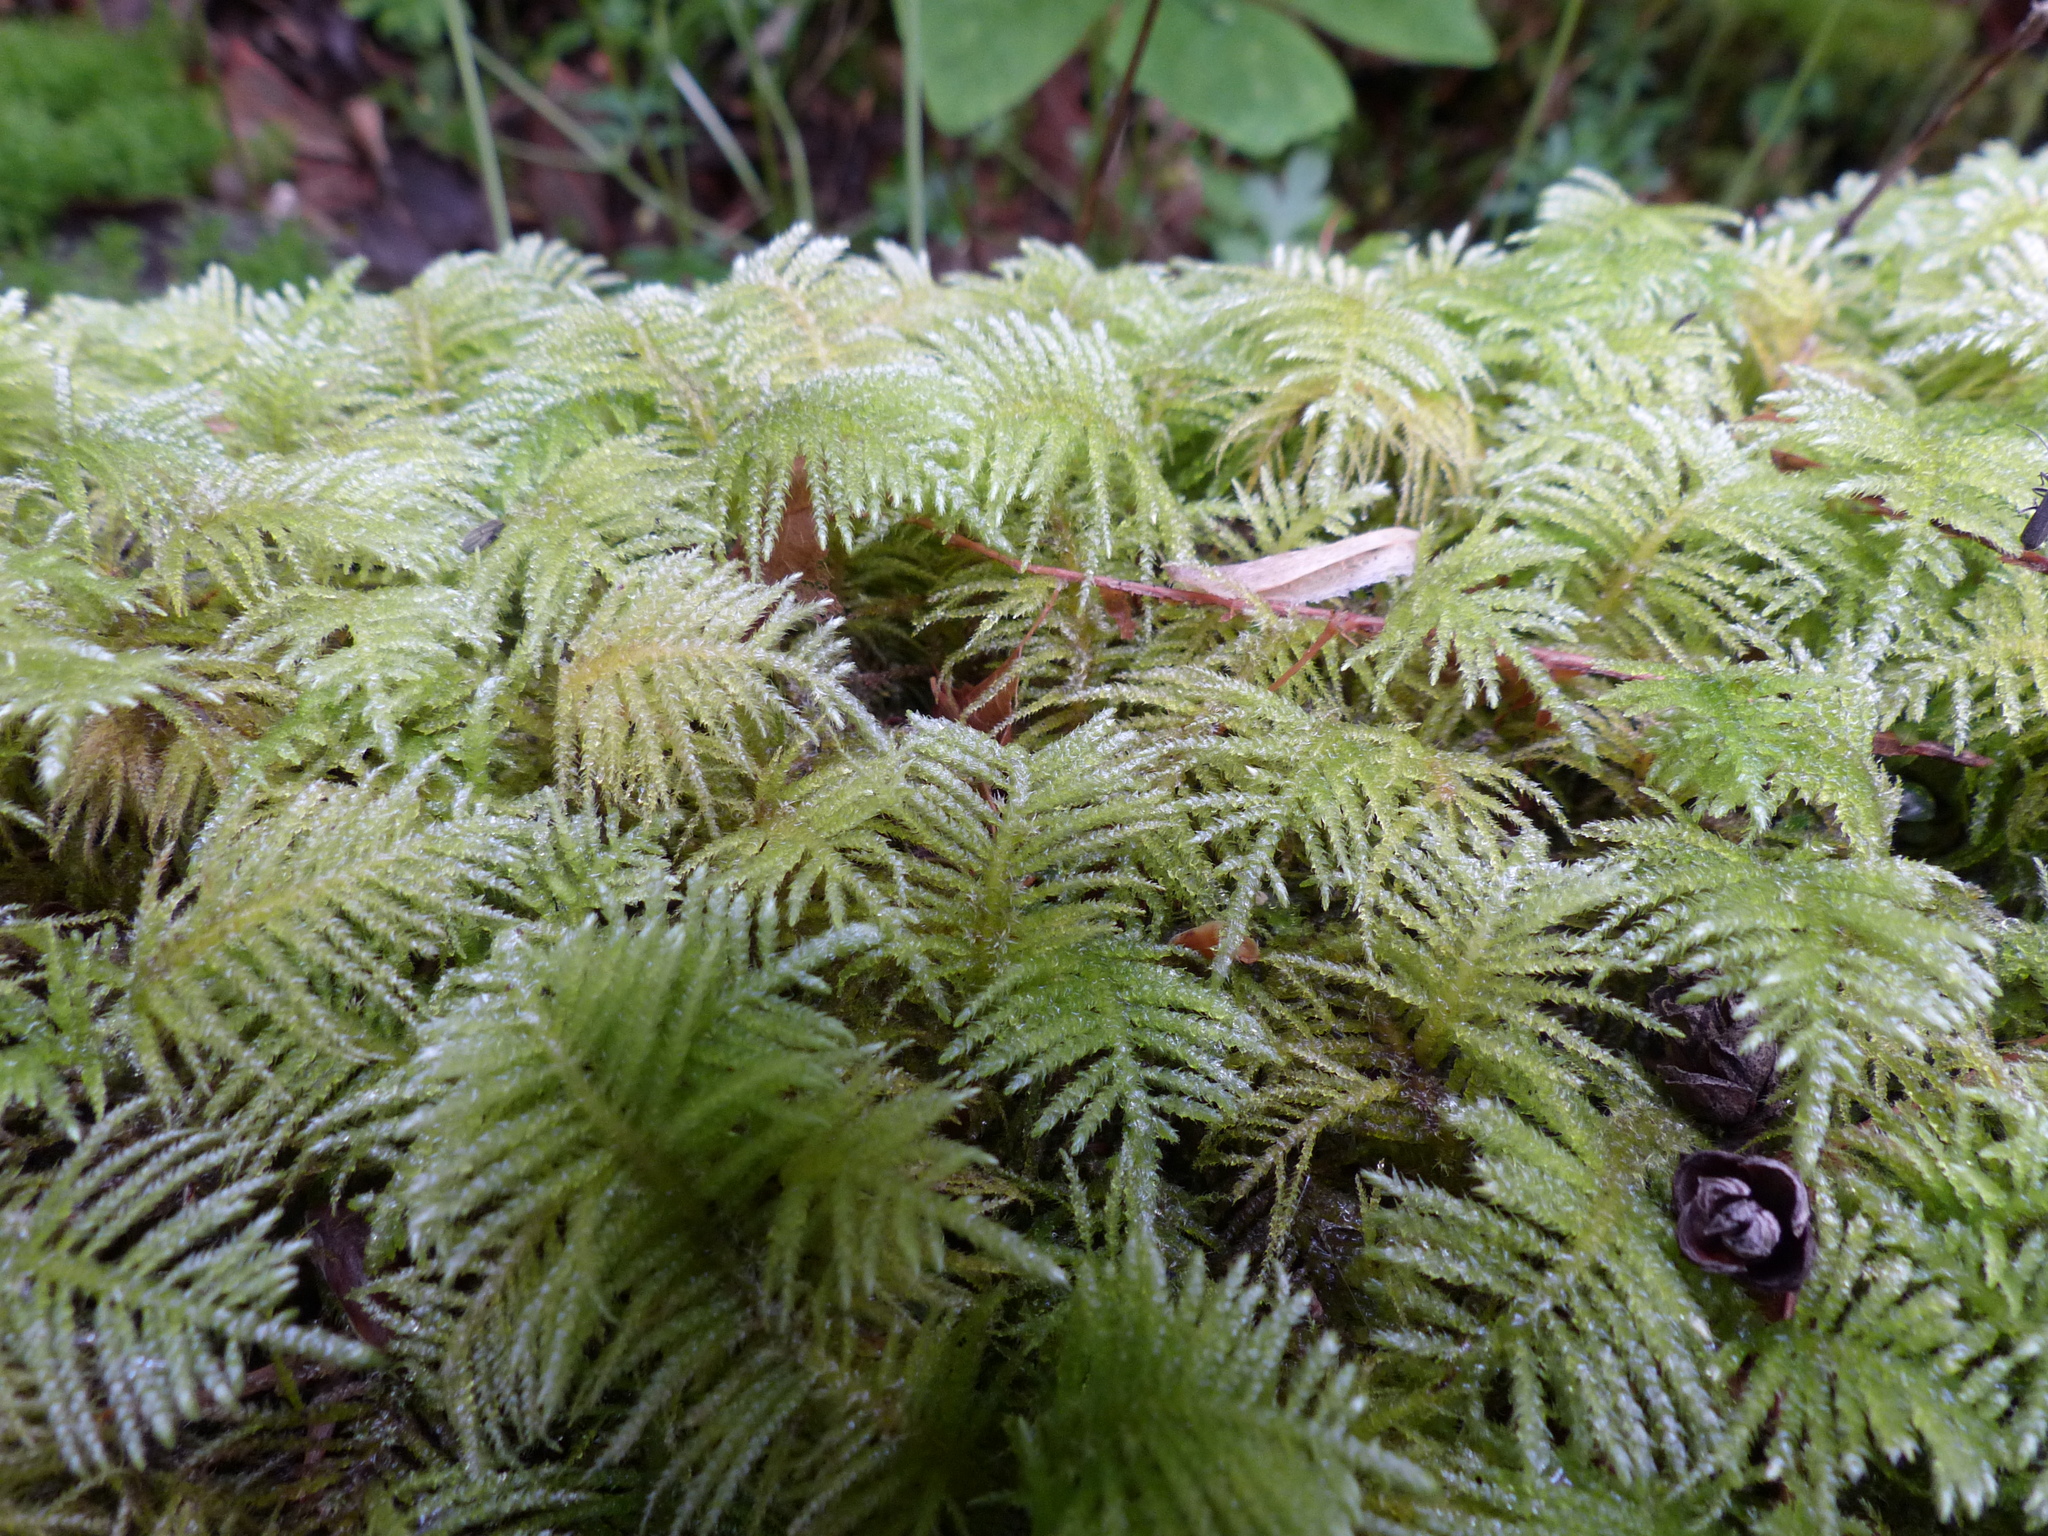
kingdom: Plantae
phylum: Bryophyta
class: Bryopsida
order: Hypnales
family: Brachytheciaceae
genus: Kindbergia
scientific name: Kindbergia oregana
